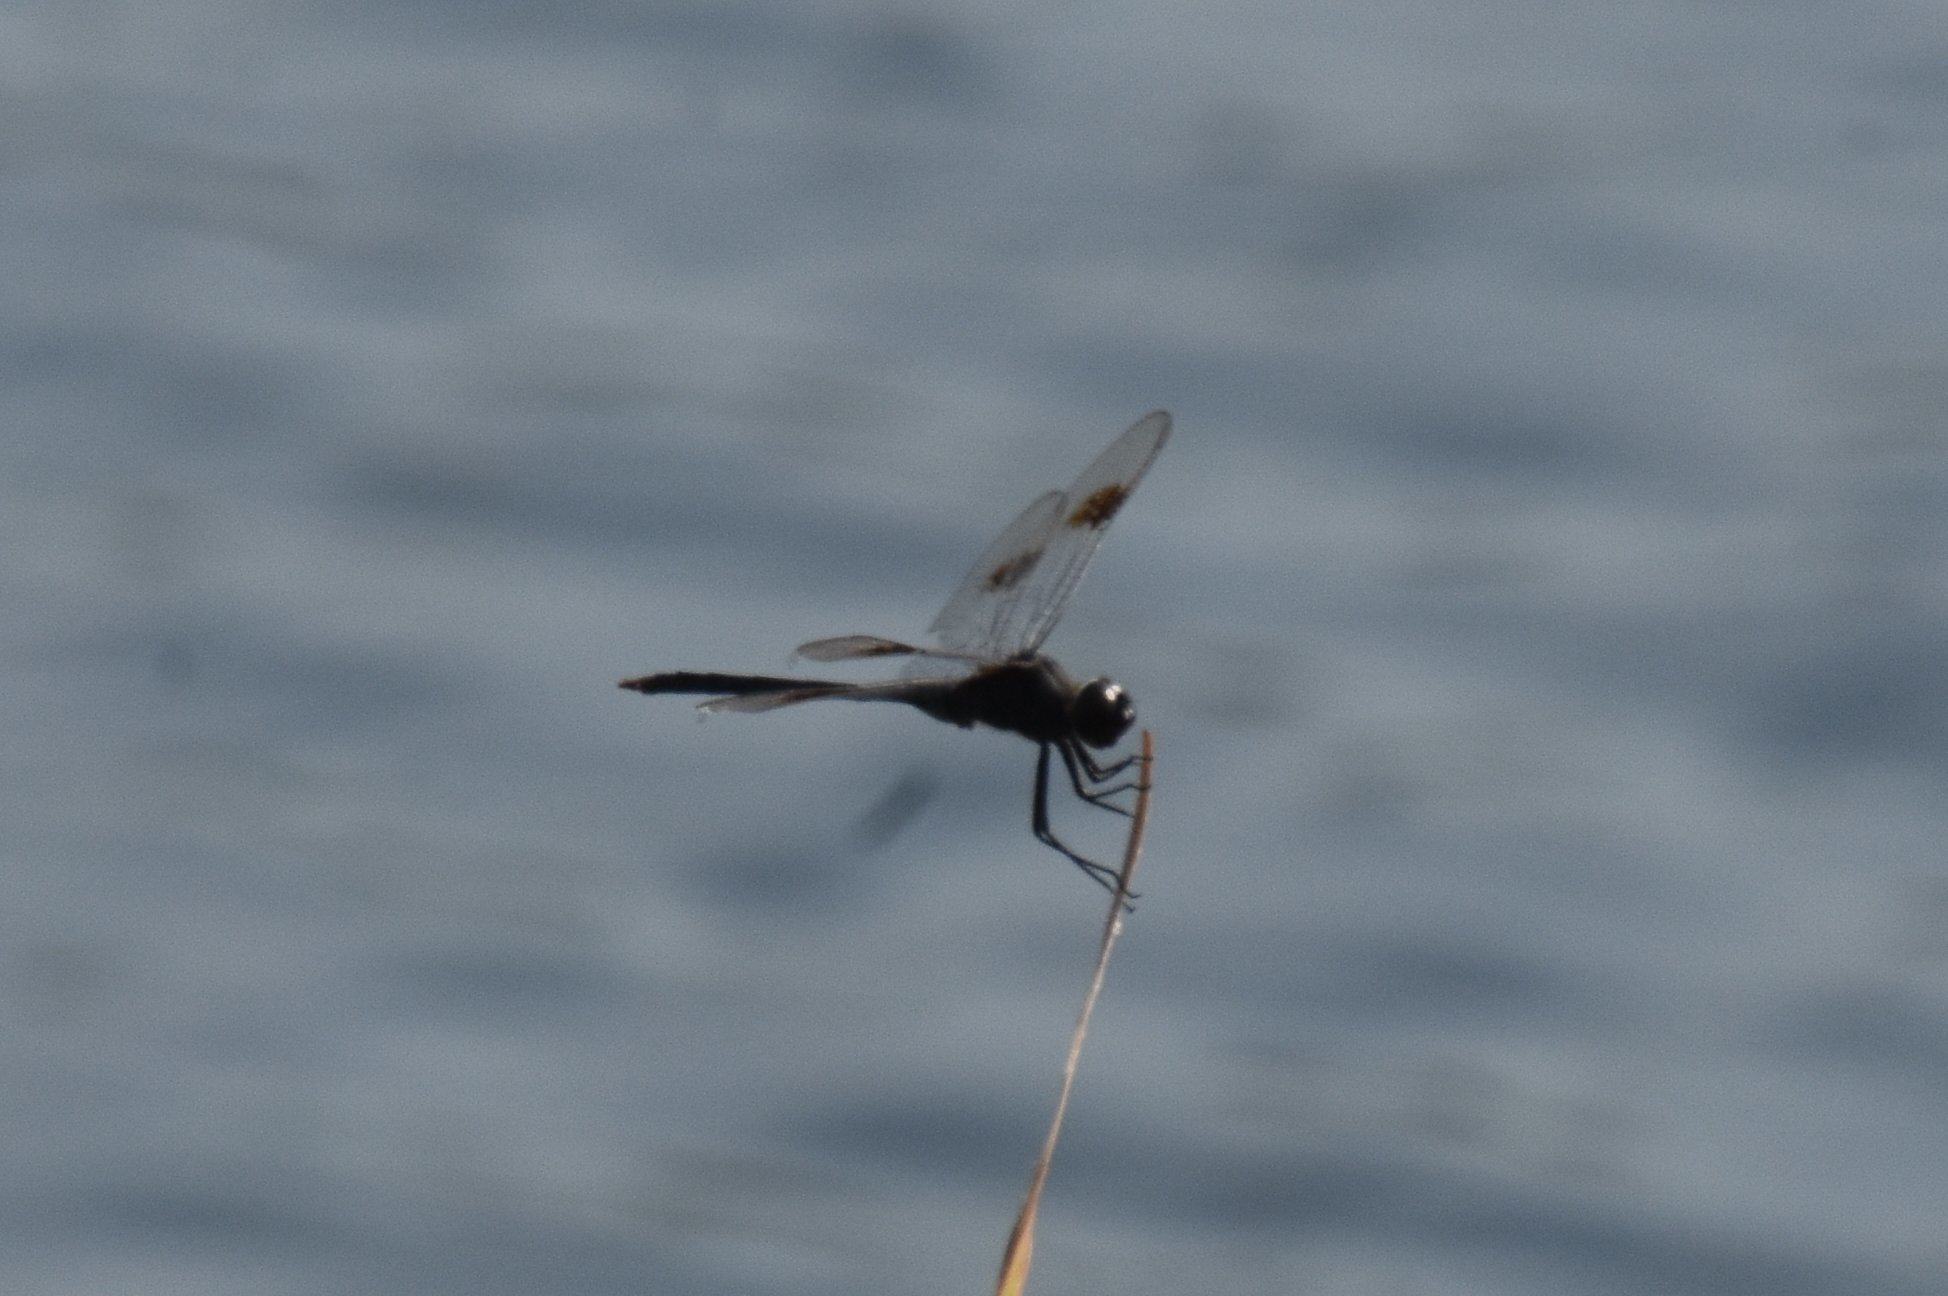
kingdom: Animalia
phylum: Arthropoda
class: Insecta
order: Odonata
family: Libellulidae
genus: Brachymesia
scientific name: Brachymesia gravida
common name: Four-spotted pennant
